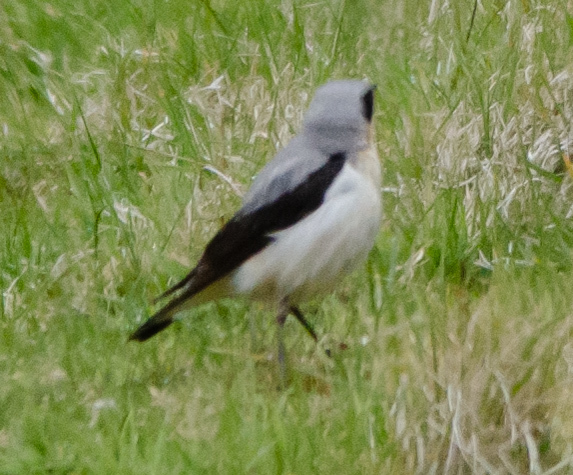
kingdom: Animalia
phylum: Chordata
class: Aves
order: Passeriformes
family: Muscicapidae
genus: Oenanthe
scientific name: Oenanthe oenanthe
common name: Northern wheatear
